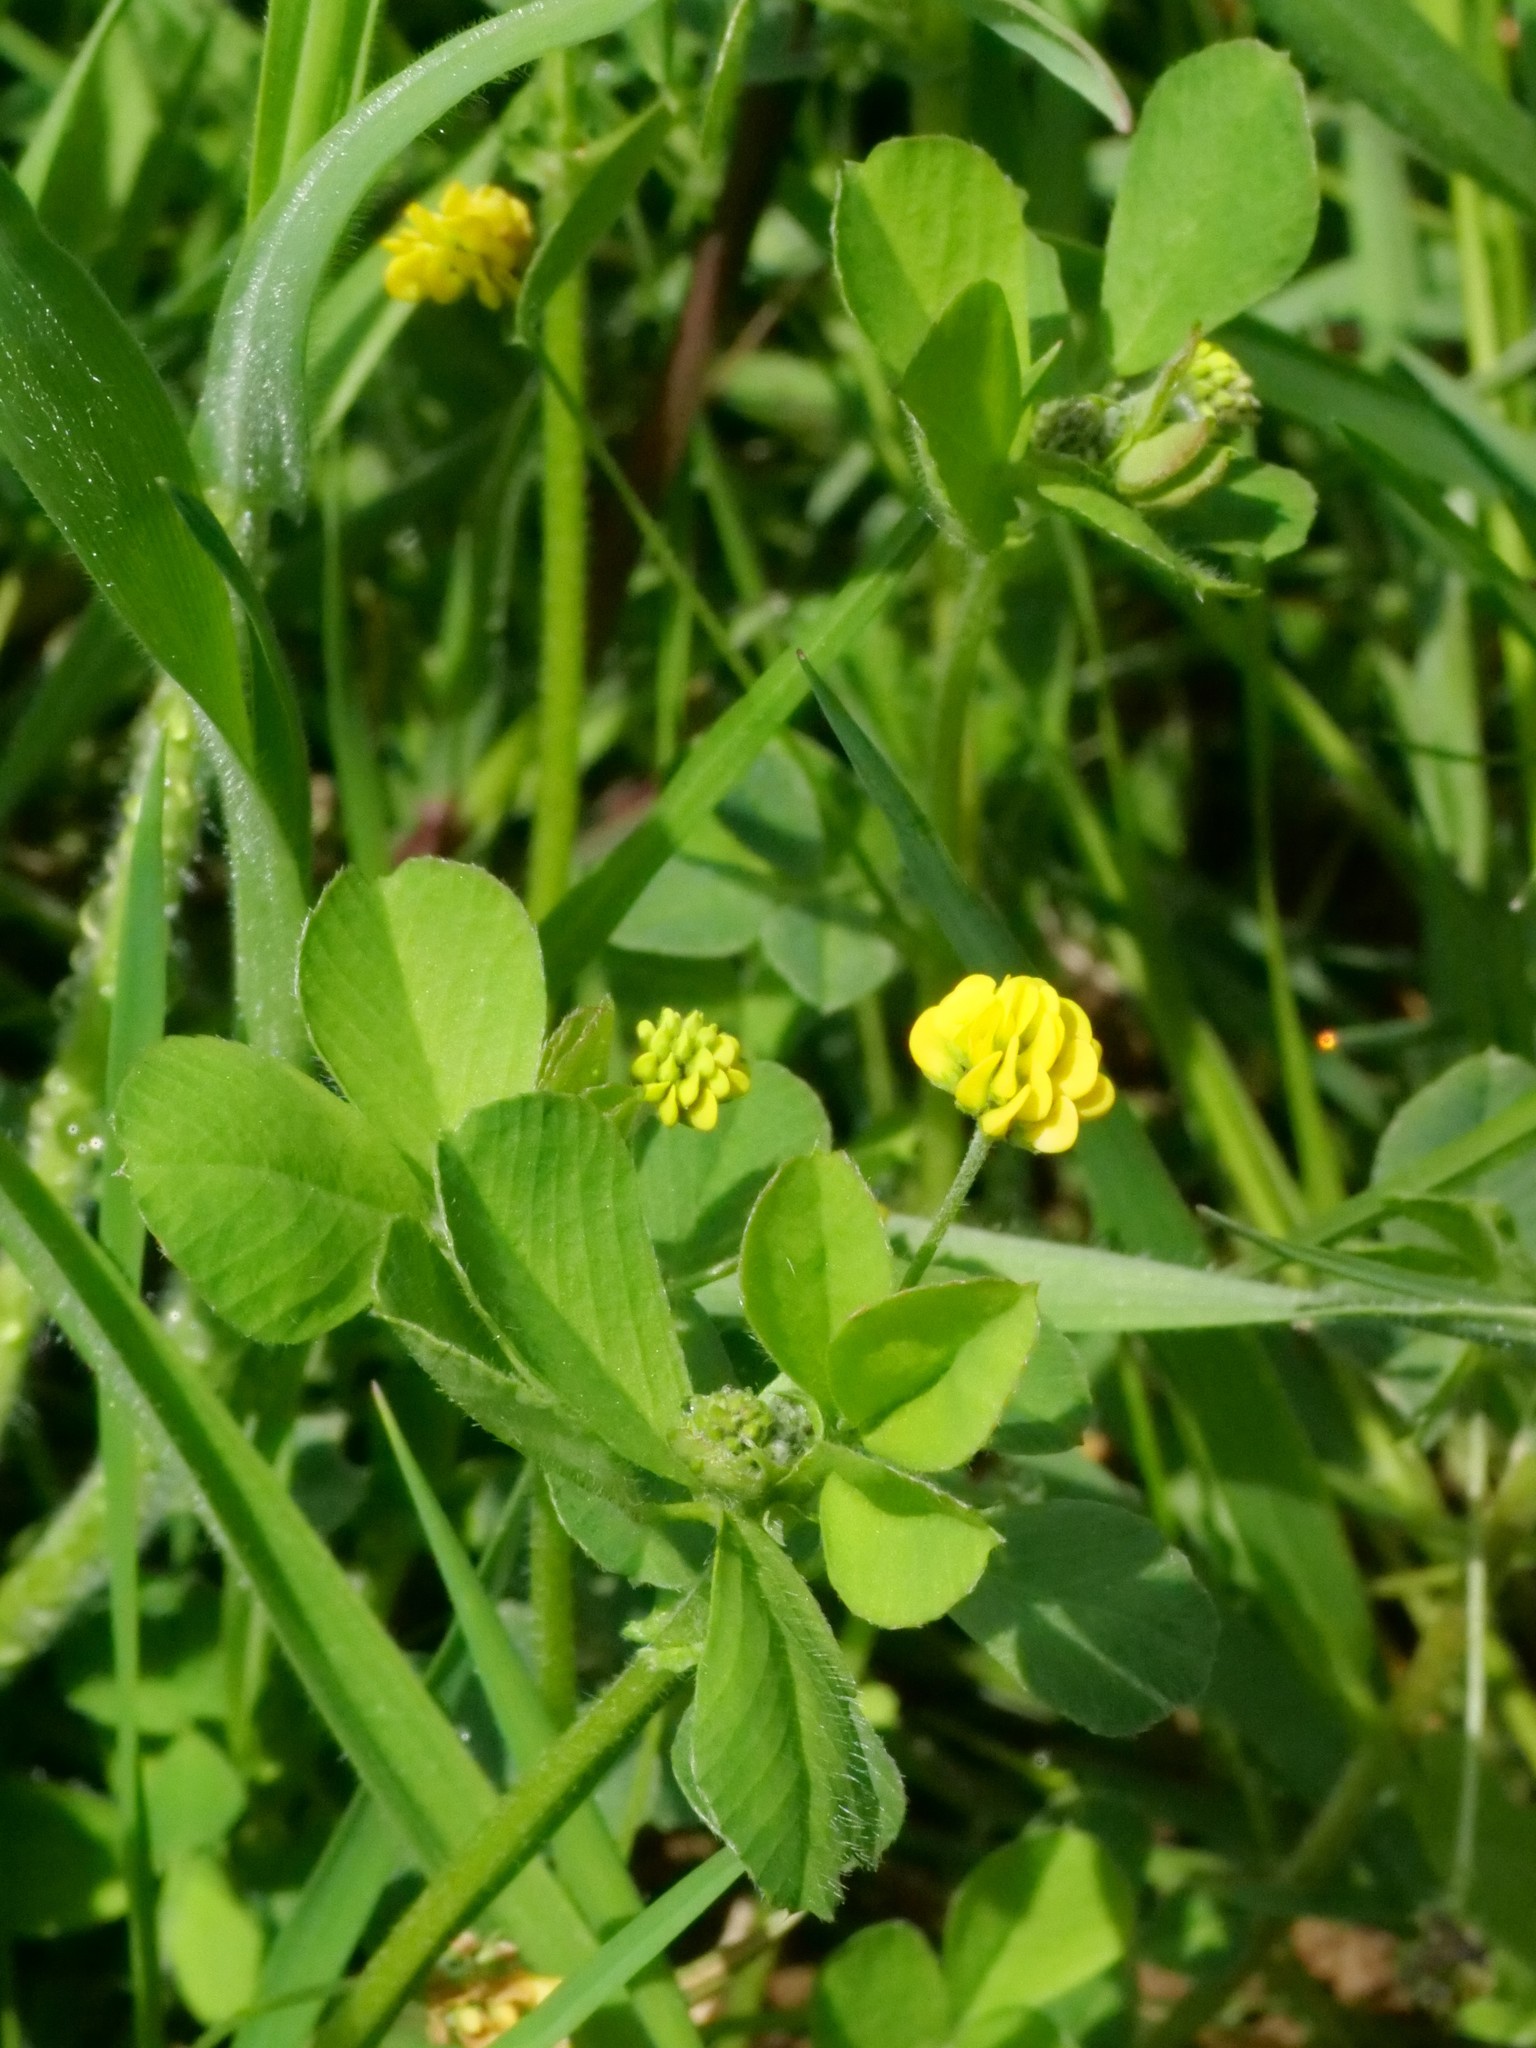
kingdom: Plantae
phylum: Tracheophyta
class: Magnoliopsida
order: Fabales
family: Fabaceae
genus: Medicago
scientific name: Medicago lupulina
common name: Black medick
